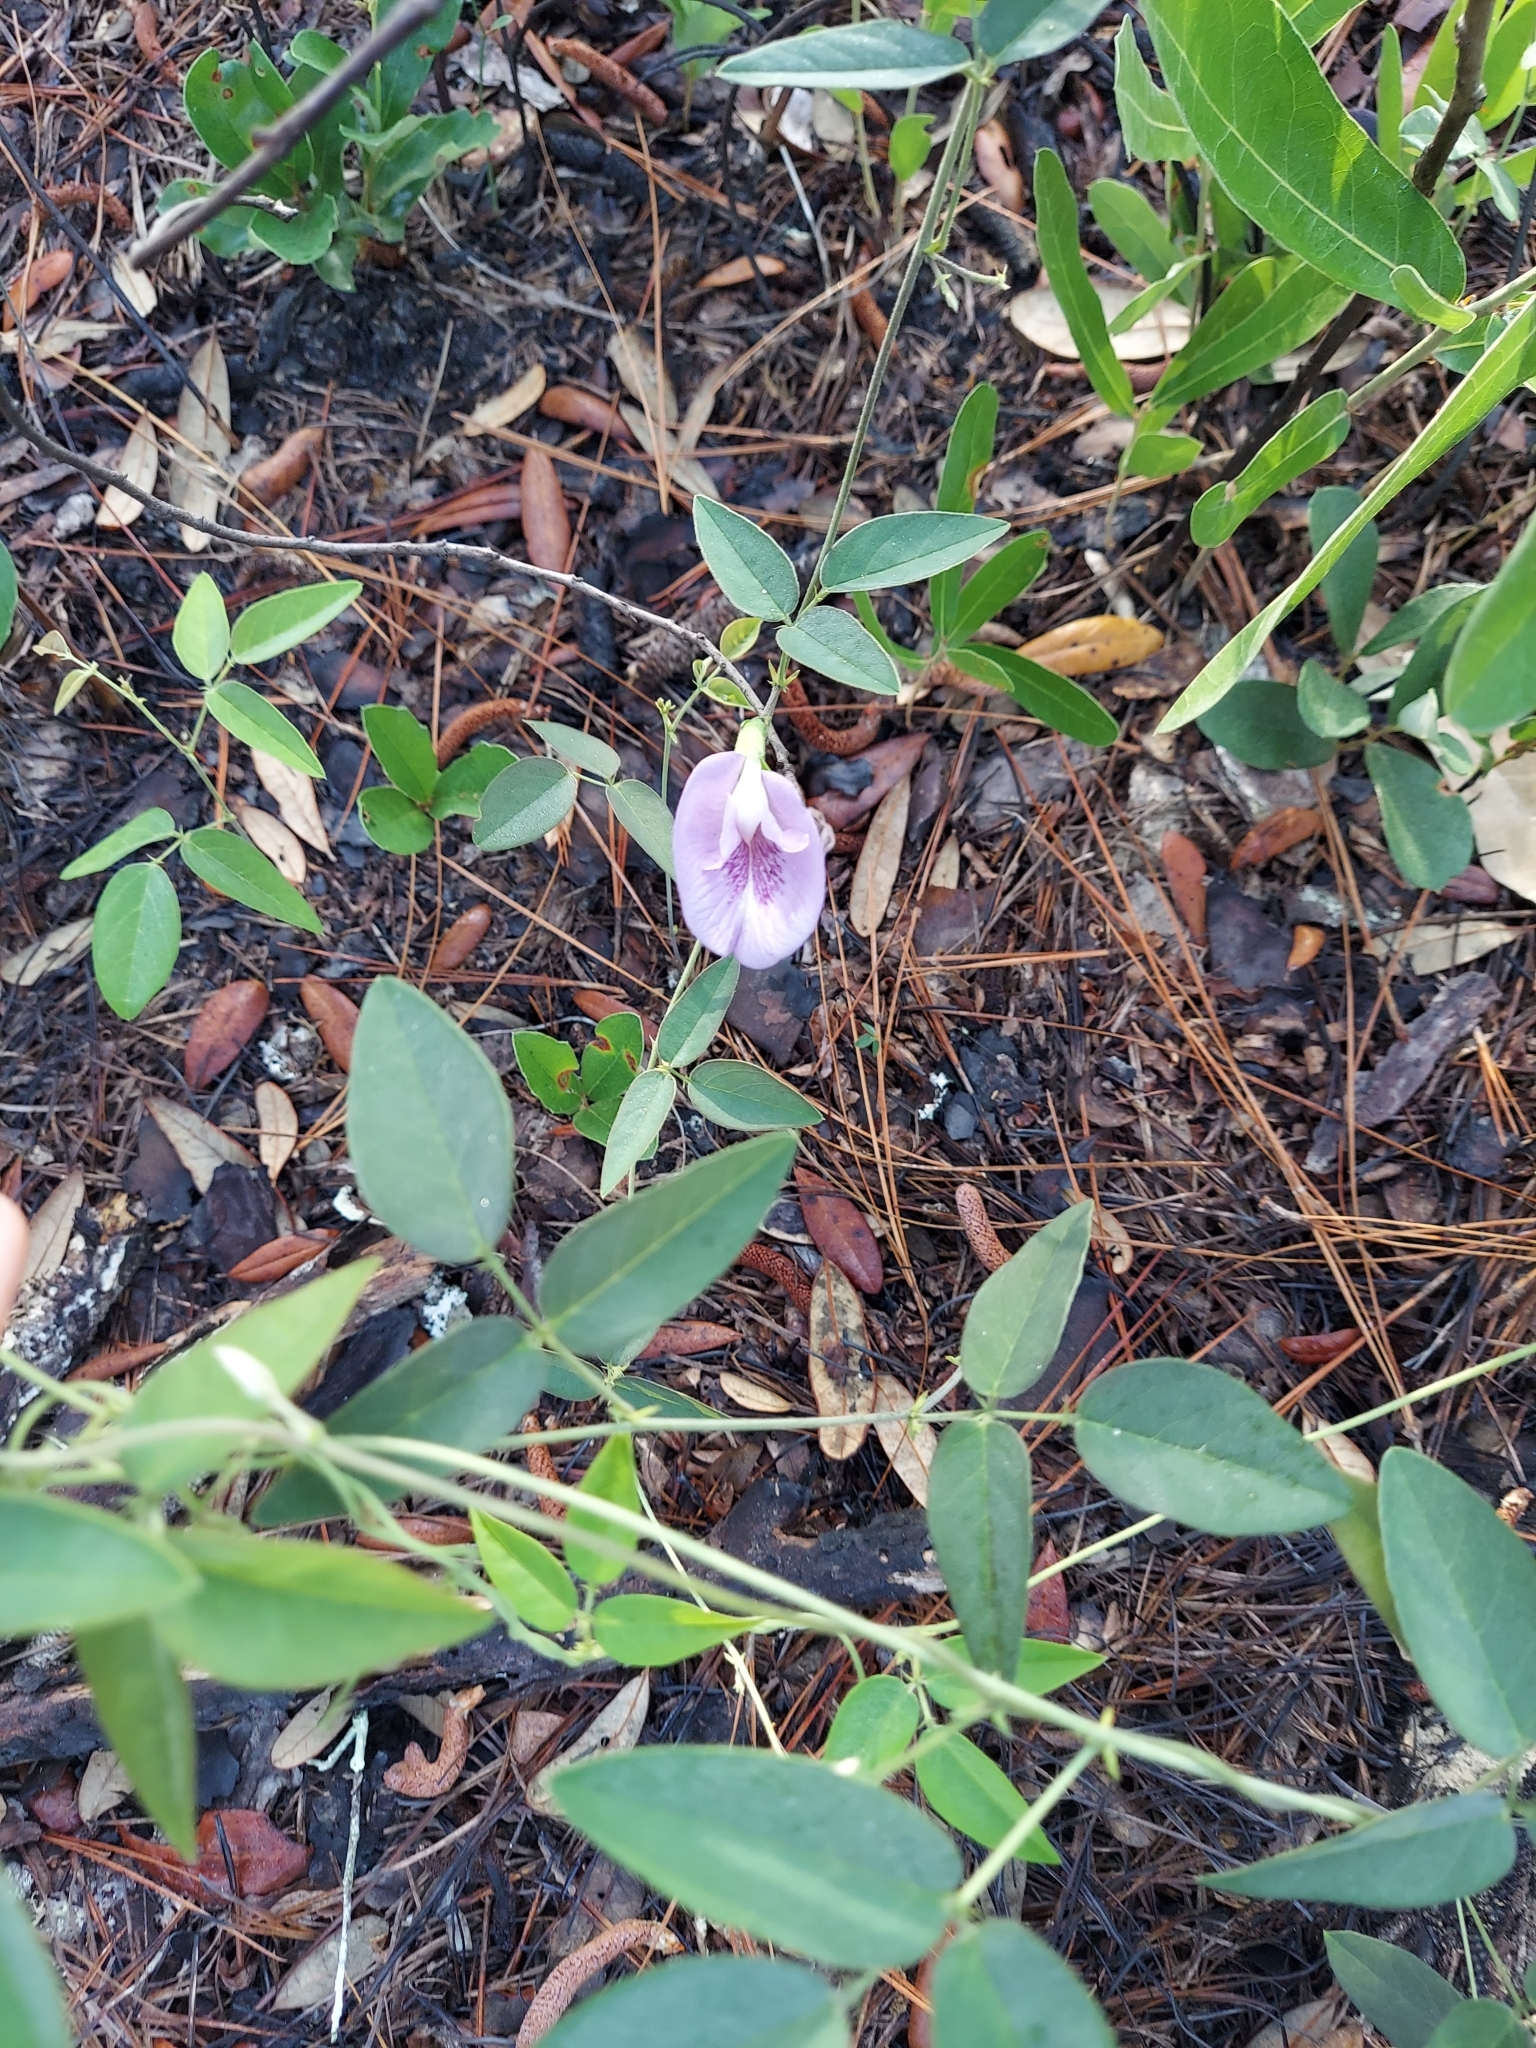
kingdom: Plantae
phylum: Tracheophyta
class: Magnoliopsida
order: Fabales
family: Fabaceae
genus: Clitoria
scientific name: Clitoria mariana
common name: Butterfly-pea
